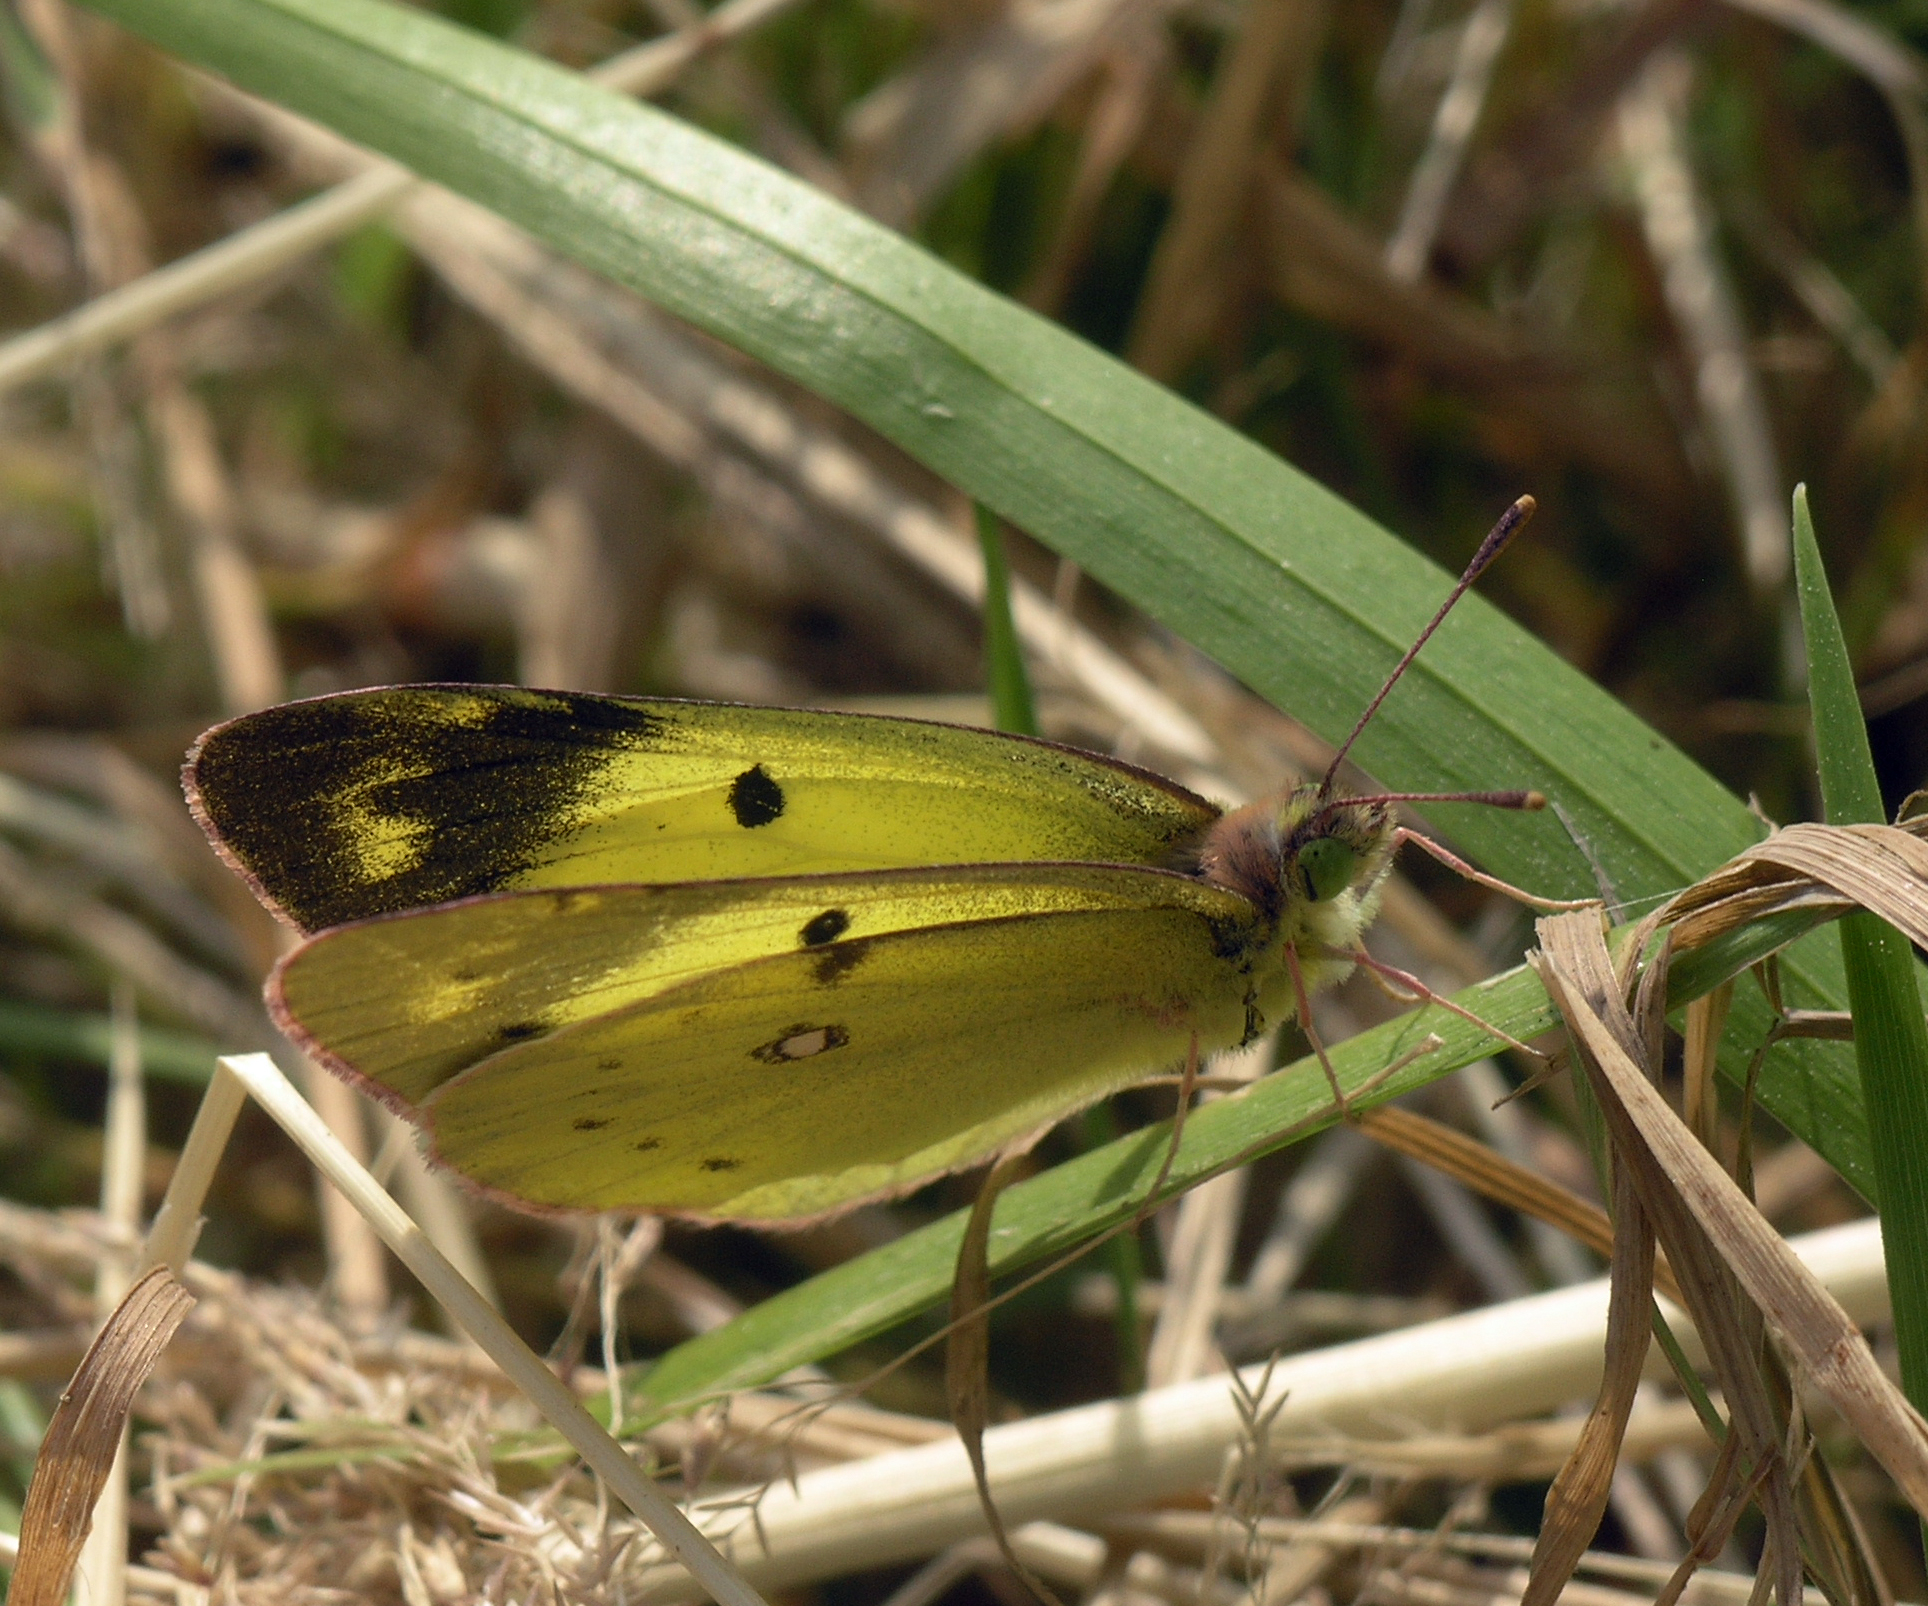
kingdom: Animalia
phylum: Arthropoda
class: Insecta
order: Lepidoptera
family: Pieridae
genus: Colias
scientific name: Colias poliographus
